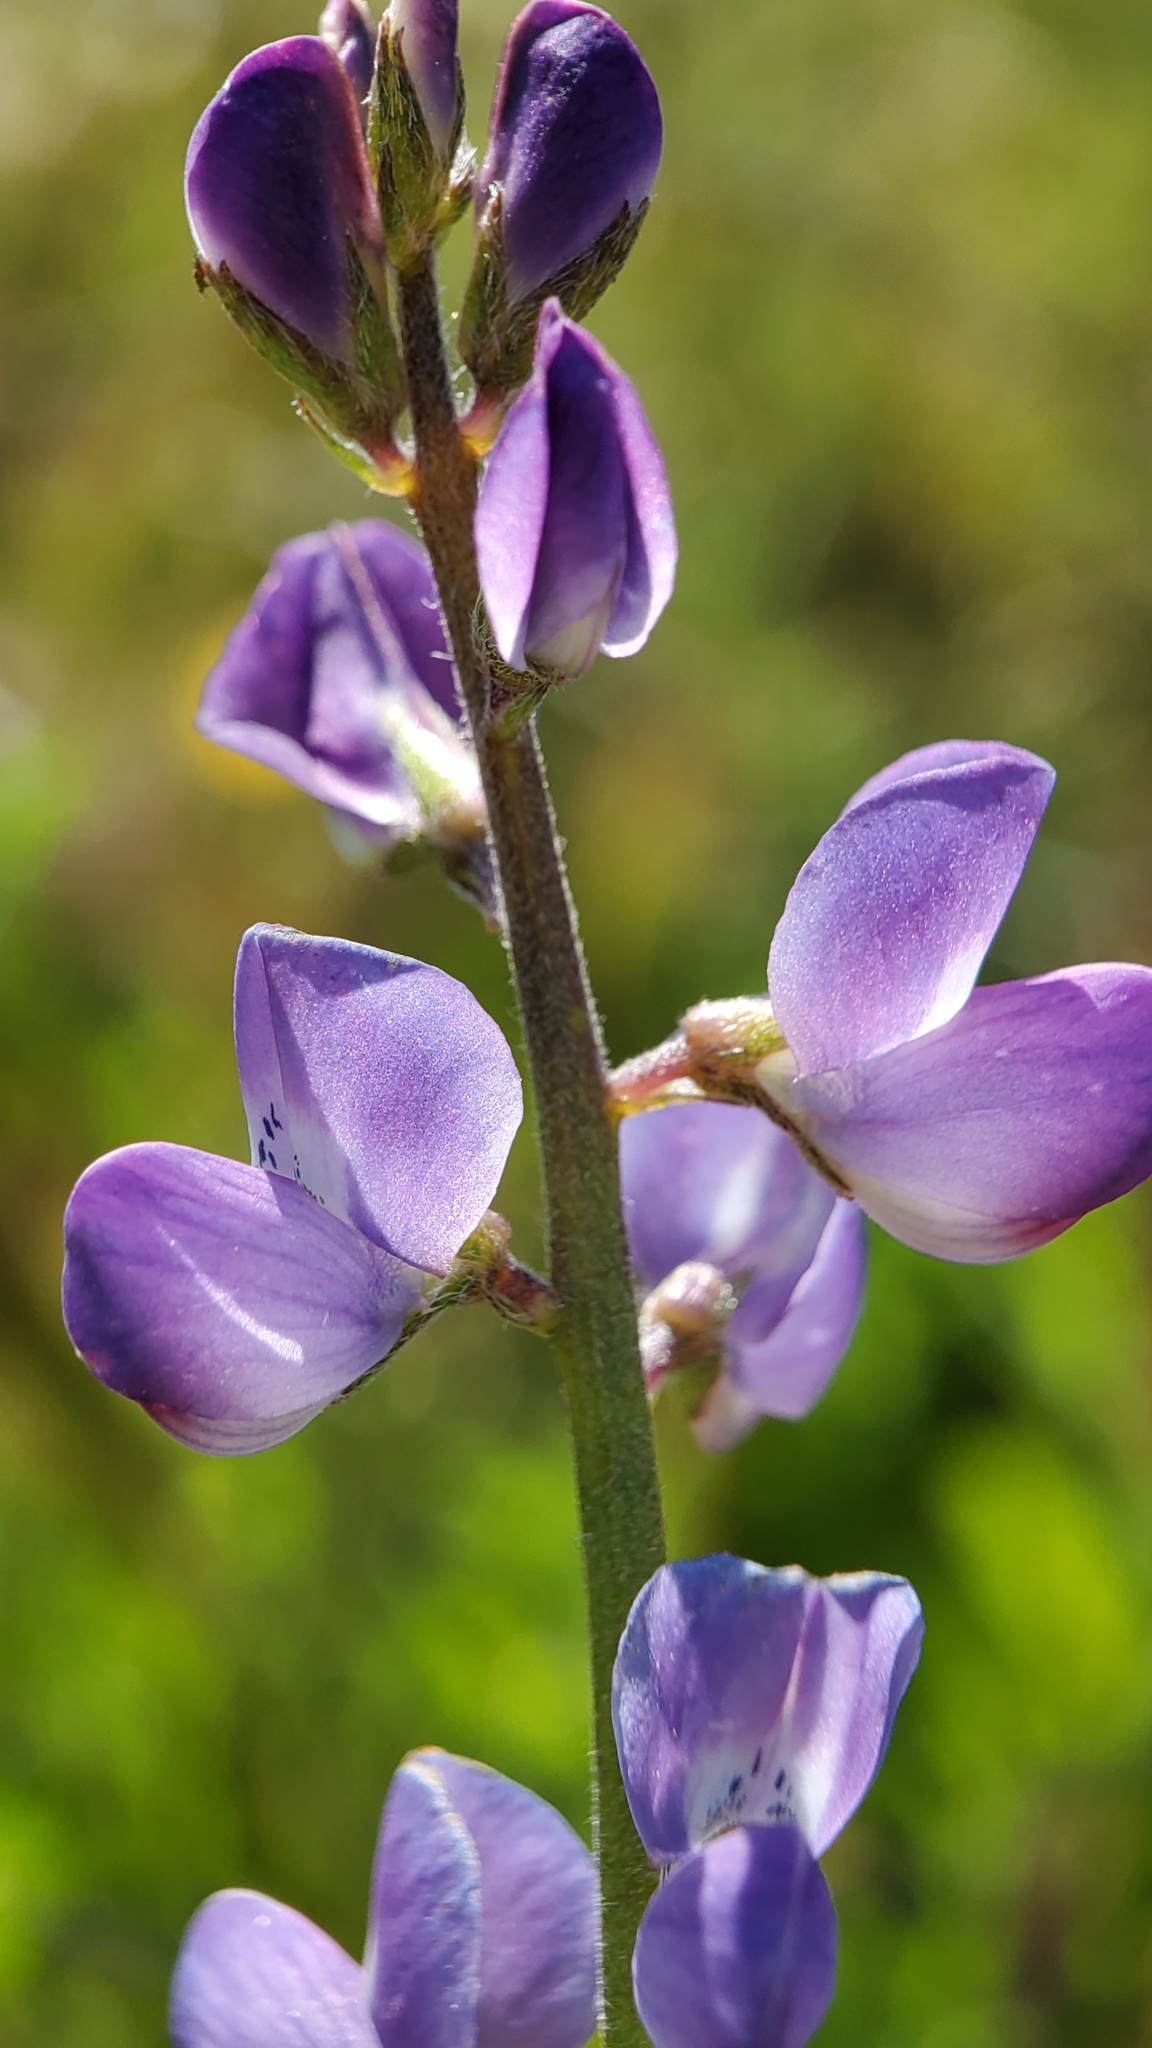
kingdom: Plantae
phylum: Tracheophyta
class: Magnoliopsida
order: Fabales
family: Fabaceae
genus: Lupinus
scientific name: Lupinus truncatus
